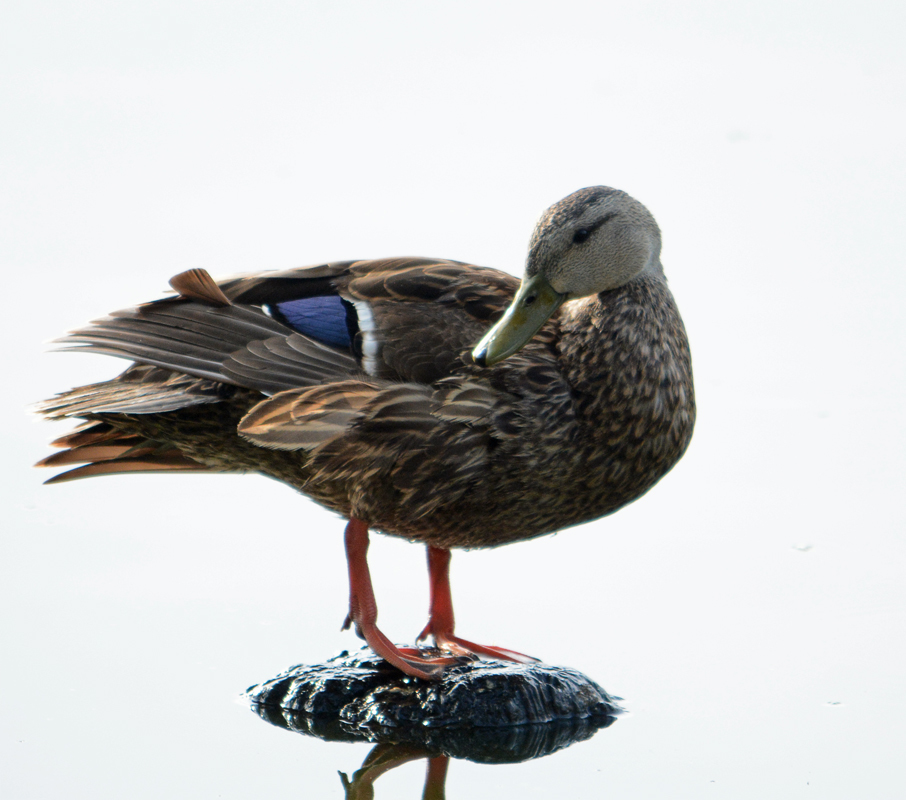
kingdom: Animalia
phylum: Chordata
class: Aves
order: Anseriformes
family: Anatidae
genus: Anas
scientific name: Anas diazi
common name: Mexican duck
